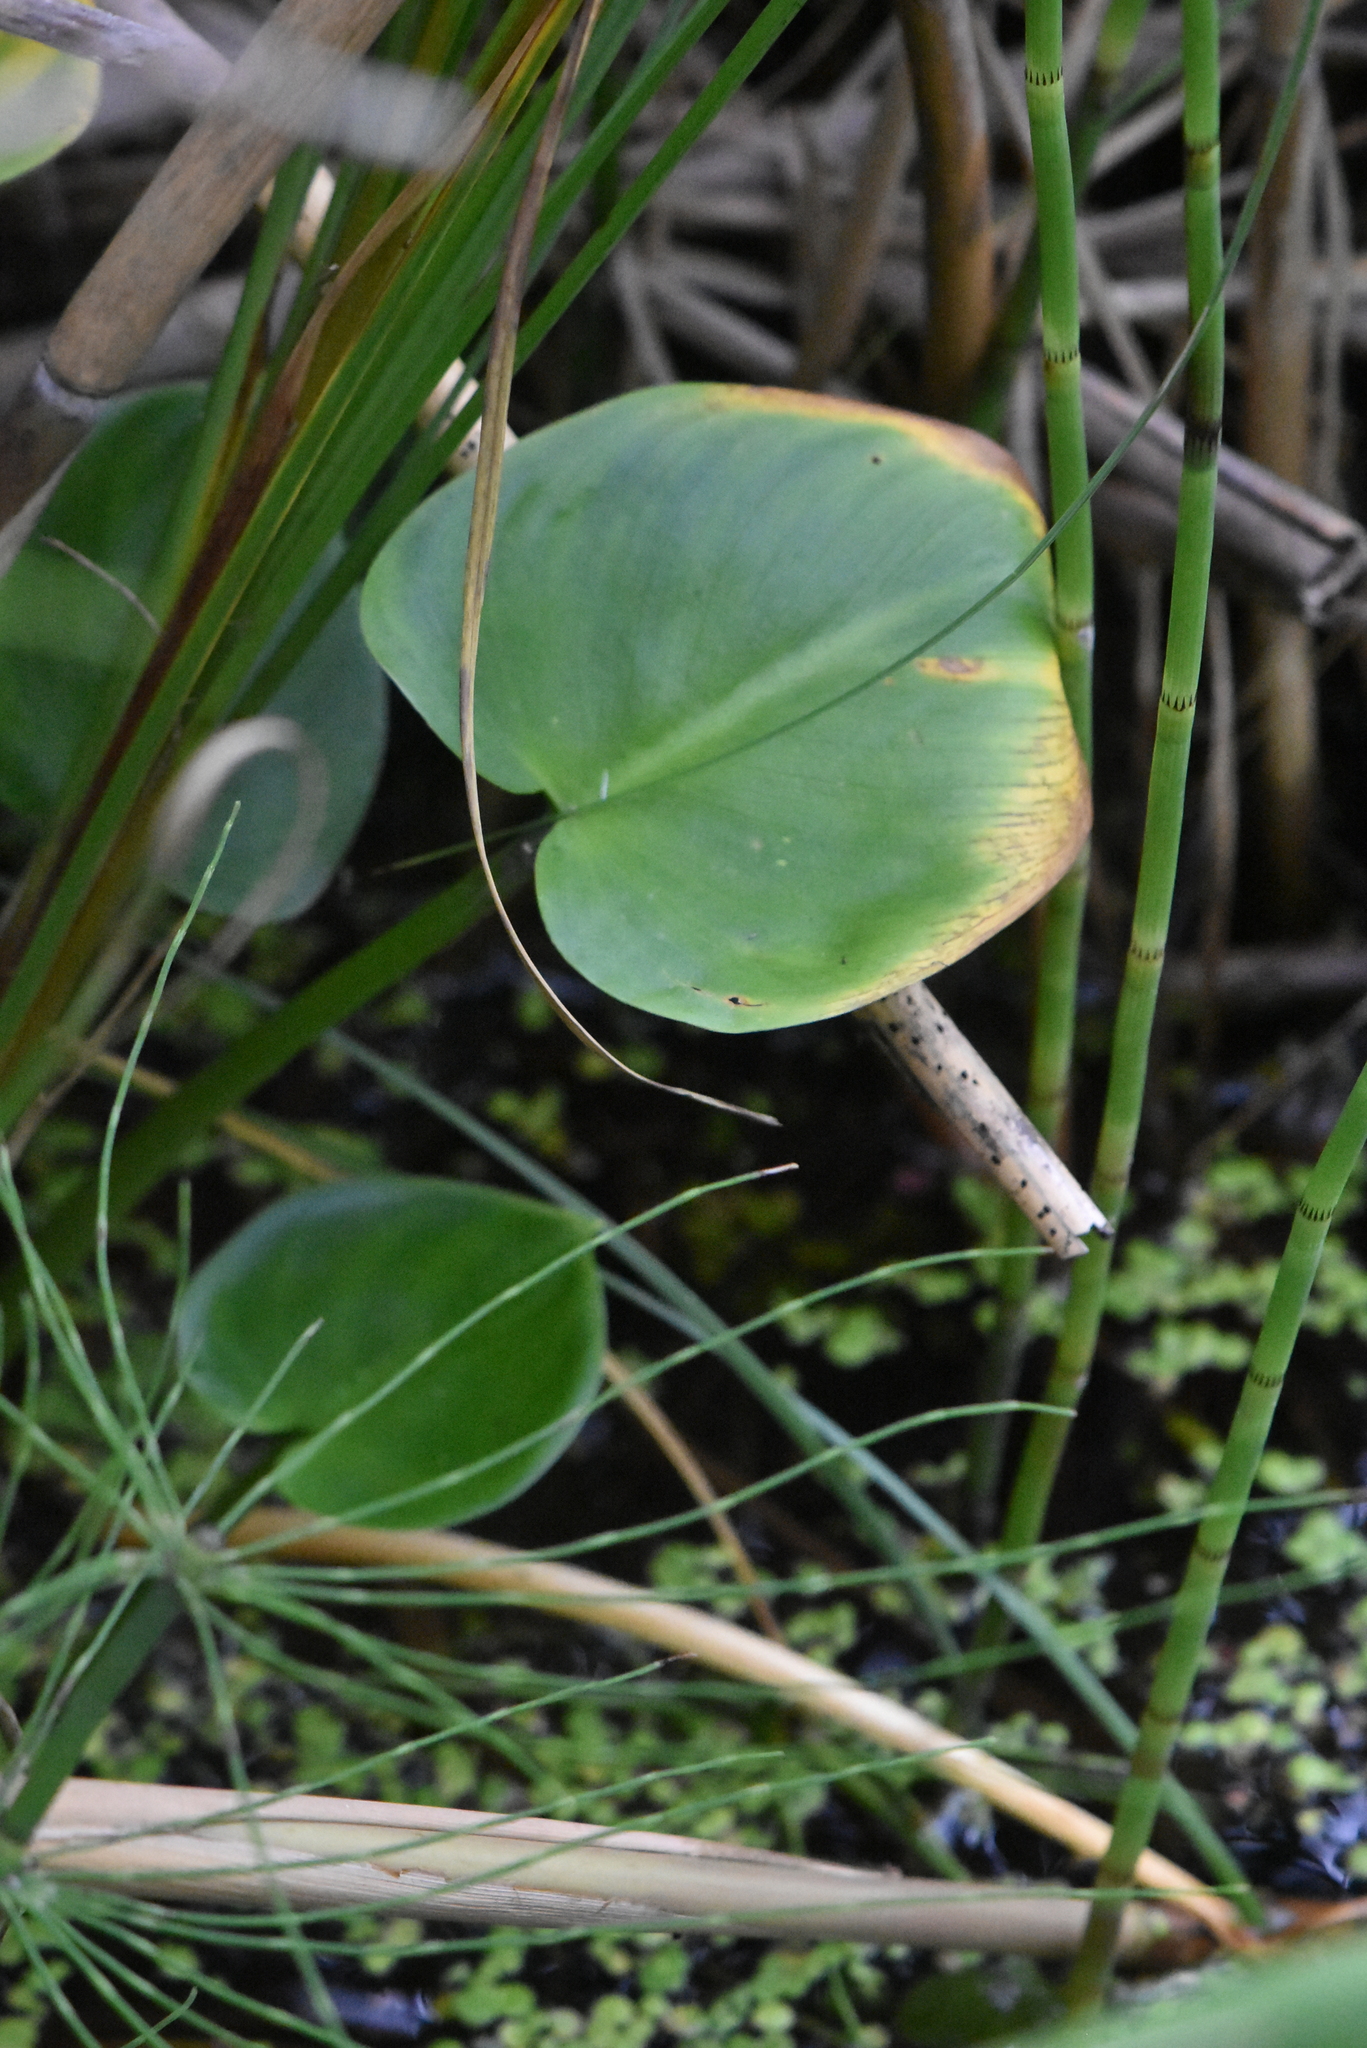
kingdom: Plantae
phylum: Tracheophyta
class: Liliopsida
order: Alismatales
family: Araceae
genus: Calla
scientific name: Calla palustris
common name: Bog arum
